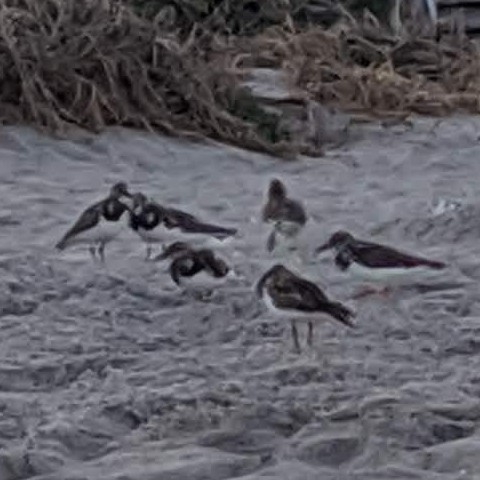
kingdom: Animalia
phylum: Chordata
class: Aves
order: Charadriiformes
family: Scolopacidae
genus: Arenaria
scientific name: Arenaria interpres
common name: Ruddy turnstone
